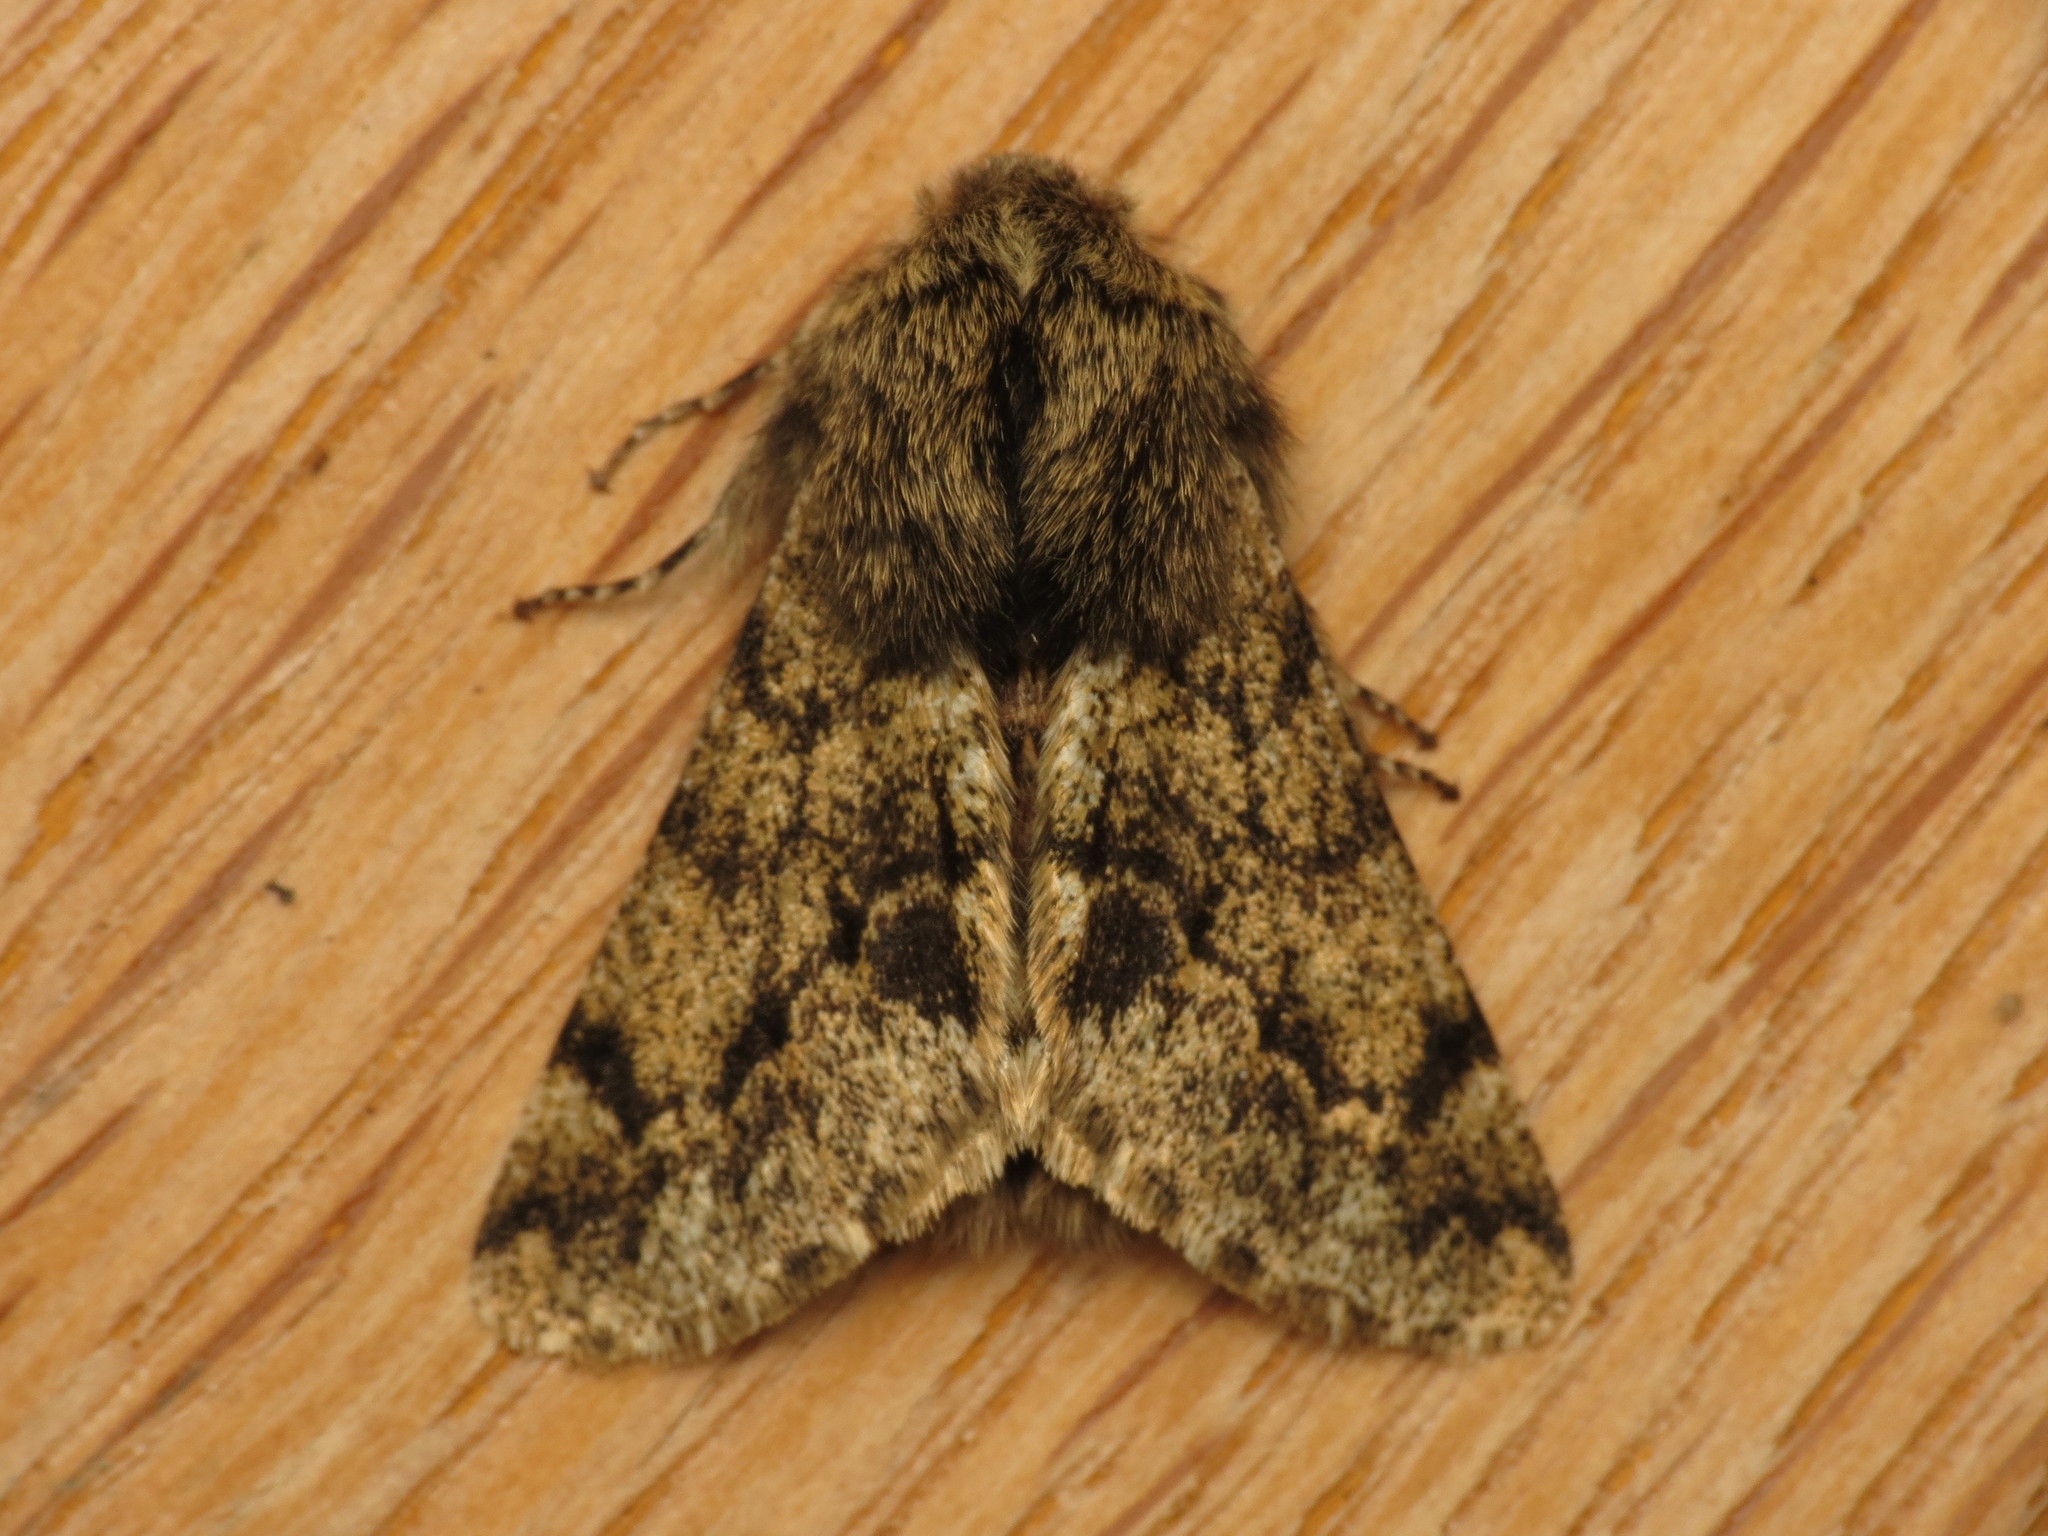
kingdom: Animalia
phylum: Arthropoda
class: Insecta
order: Lepidoptera
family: Geometridae
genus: Apocheima
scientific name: Apocheima hispidaria
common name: Small brindled beauty
